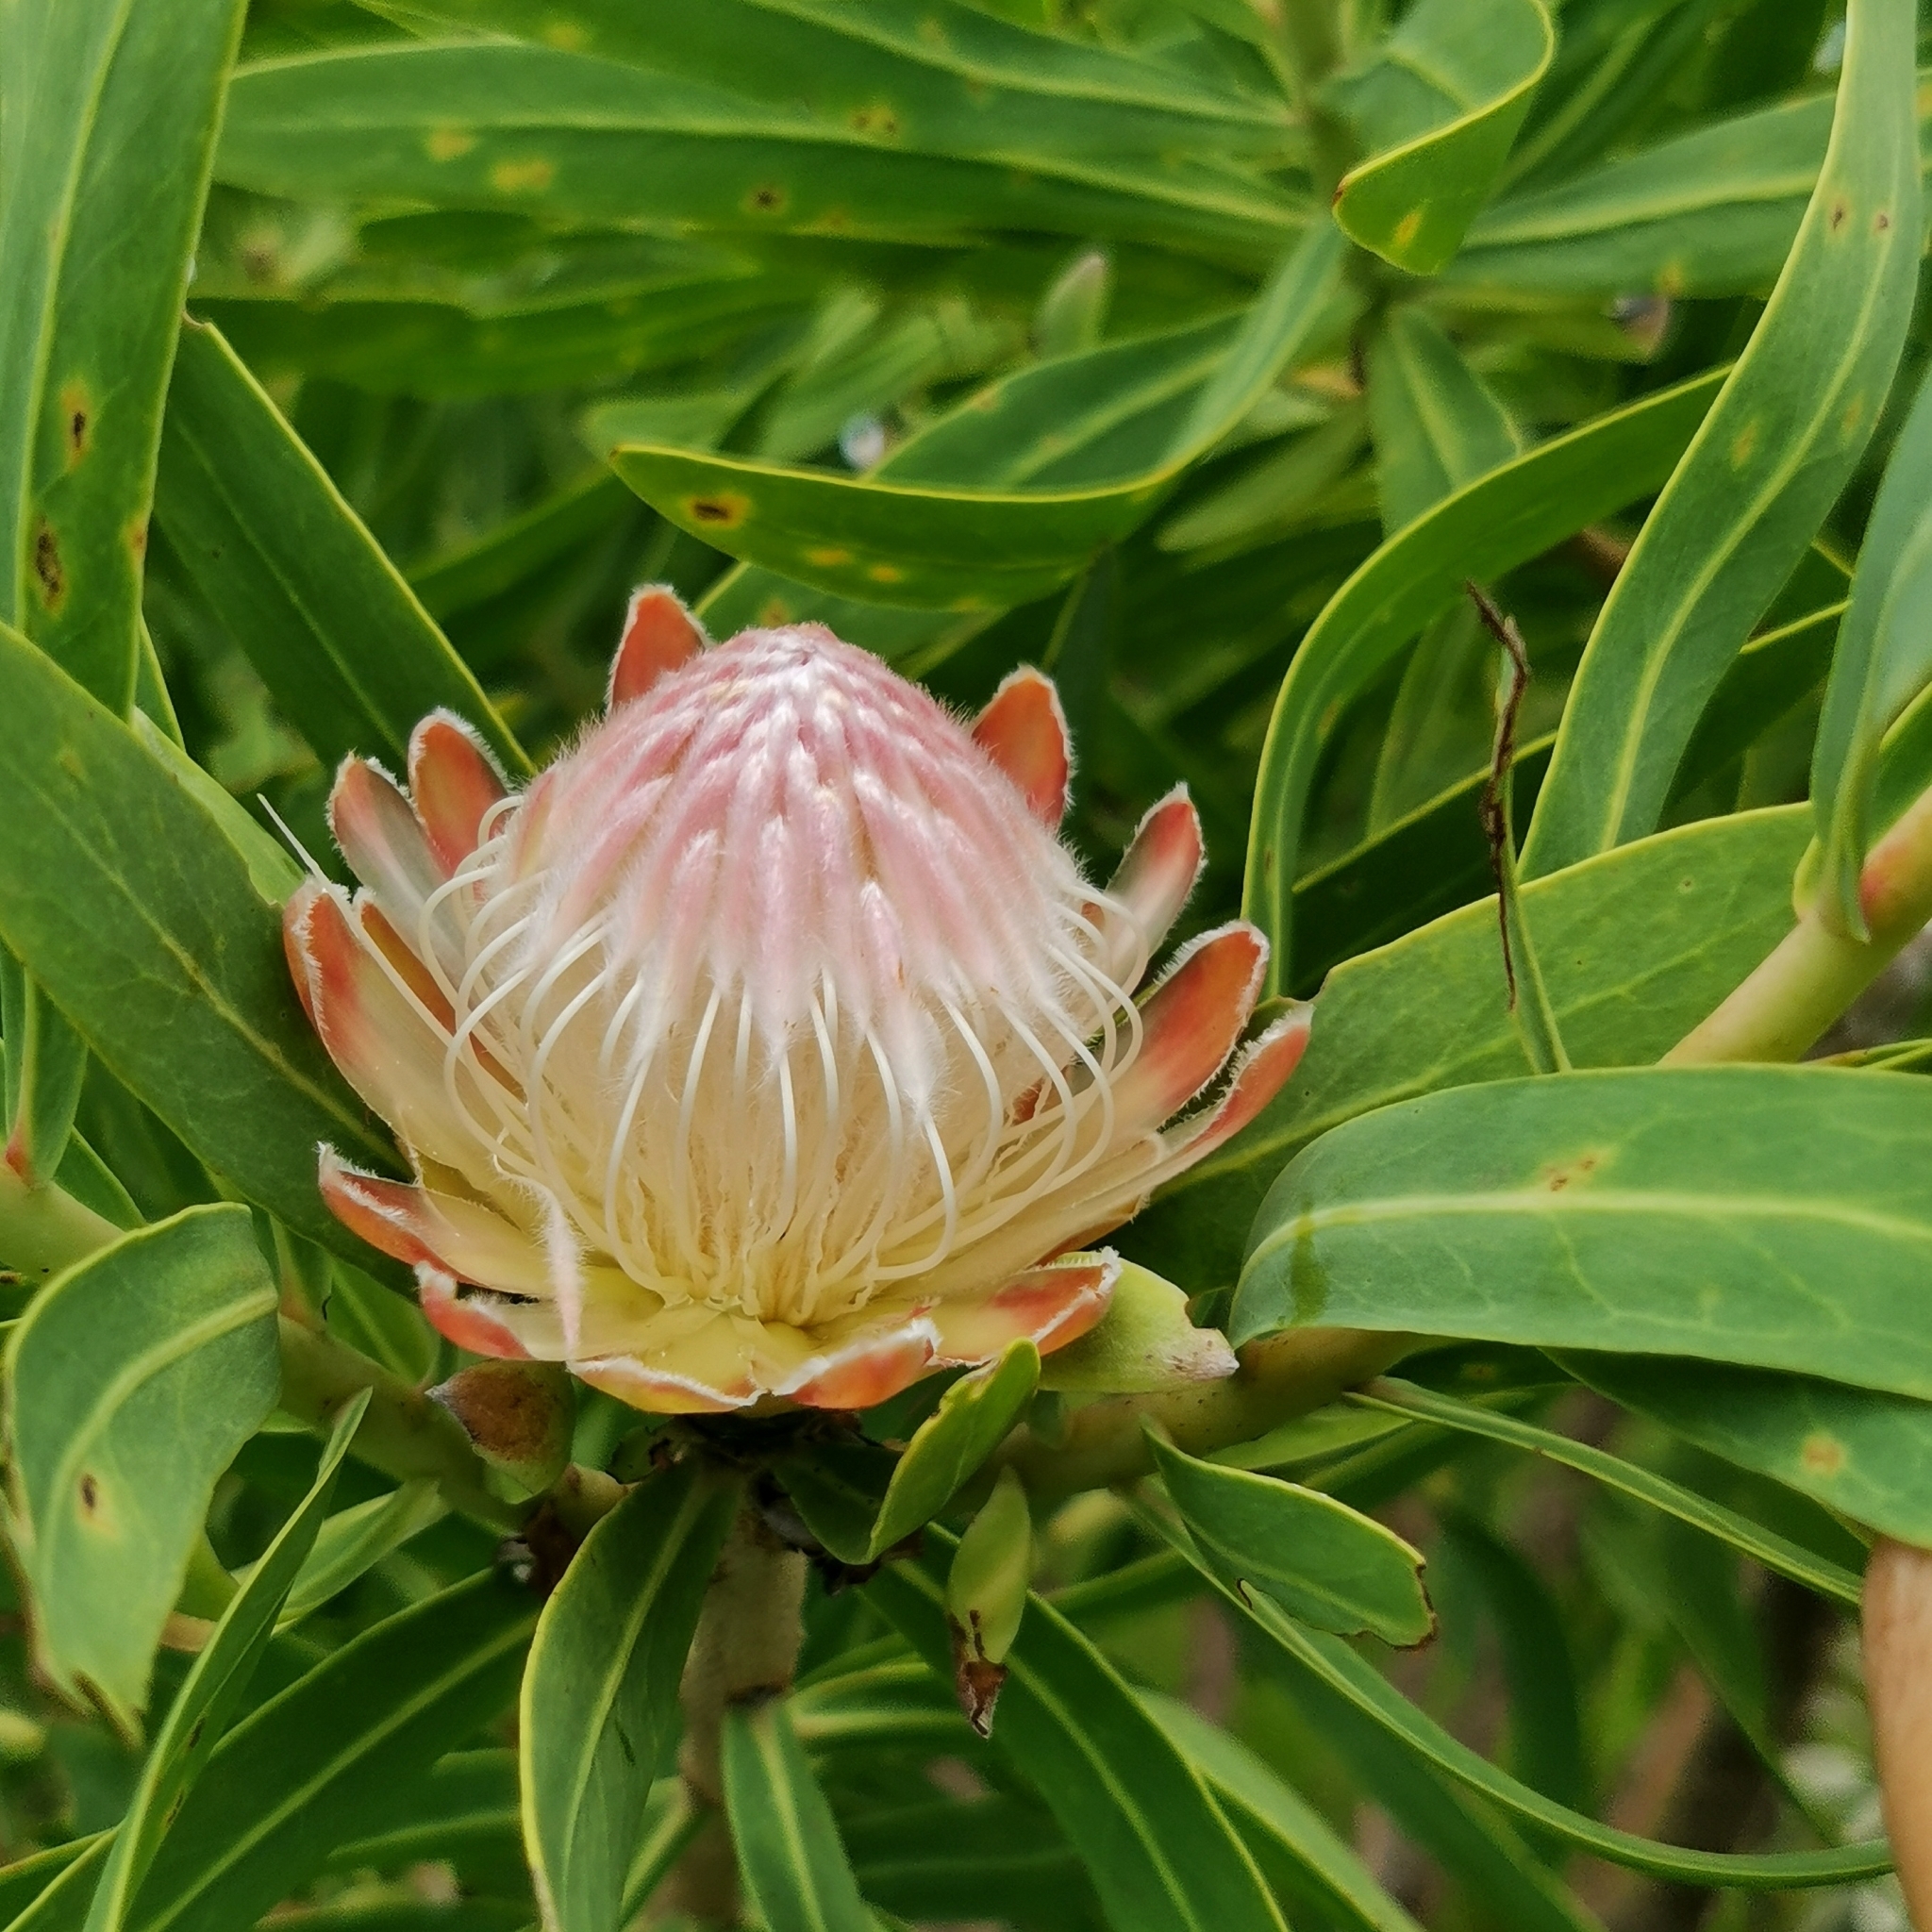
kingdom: Plantae
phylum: Tracheophyta
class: Magnoliopsida
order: Proteales
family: Proteaceae
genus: Protea
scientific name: Protea gaguedi
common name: African protea
